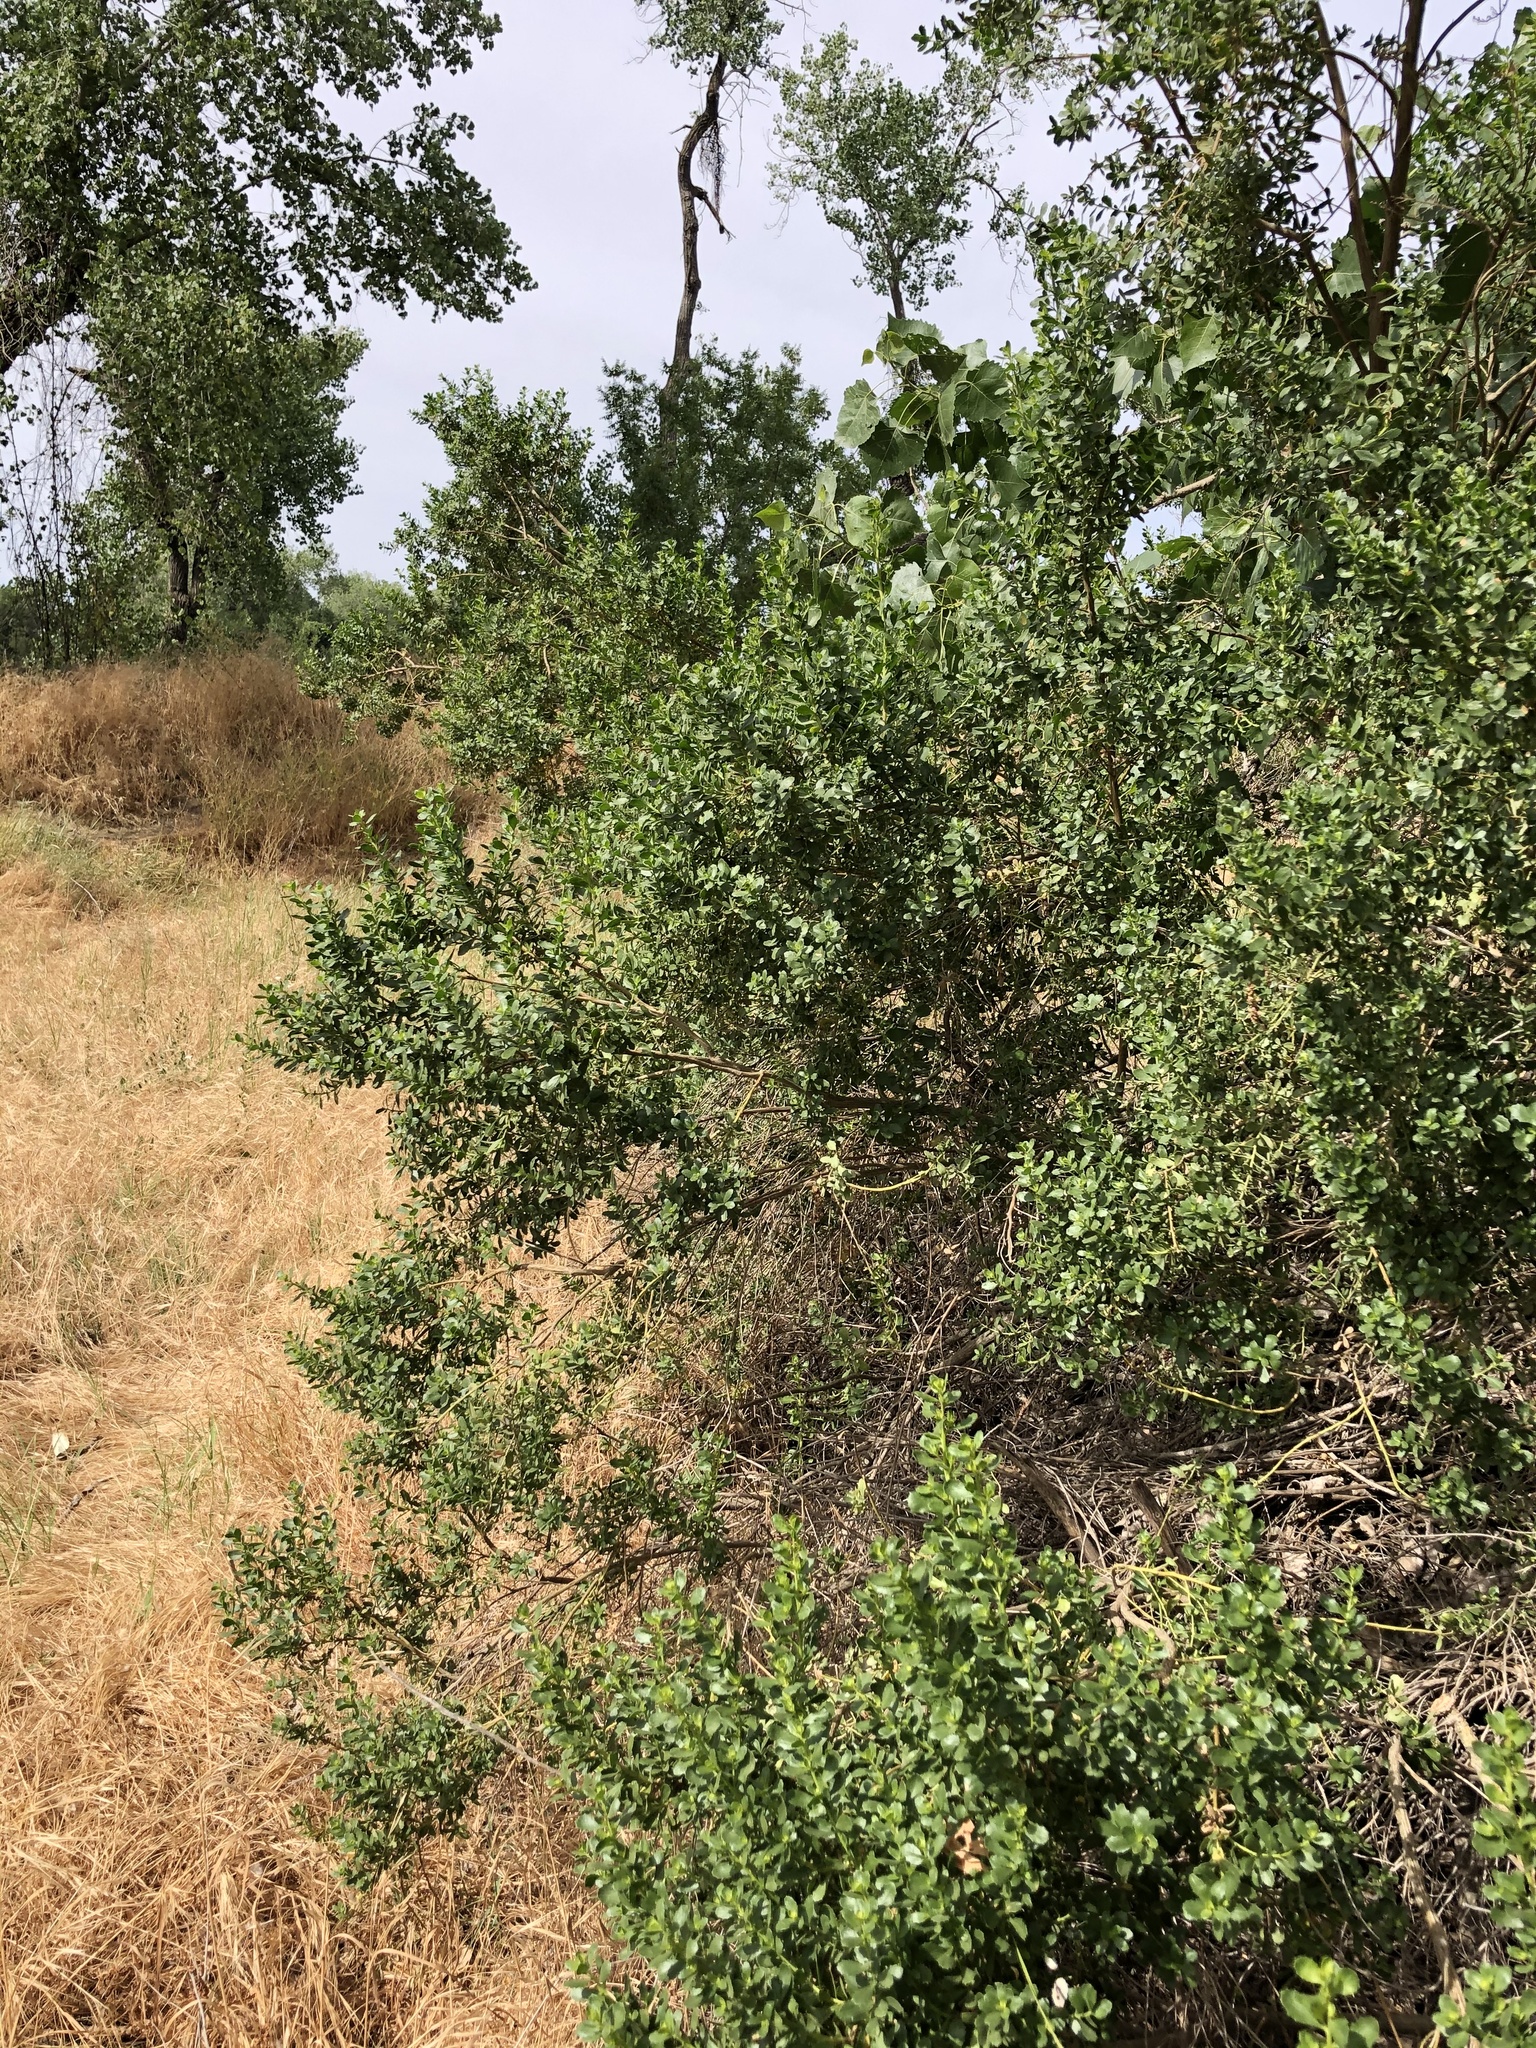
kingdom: Plantae
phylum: Tracheophyta
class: Magnoliopsida
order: Asterales
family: Asteraceae
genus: Baccharis
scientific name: Baccharis pilularis
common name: Coyotebrush
